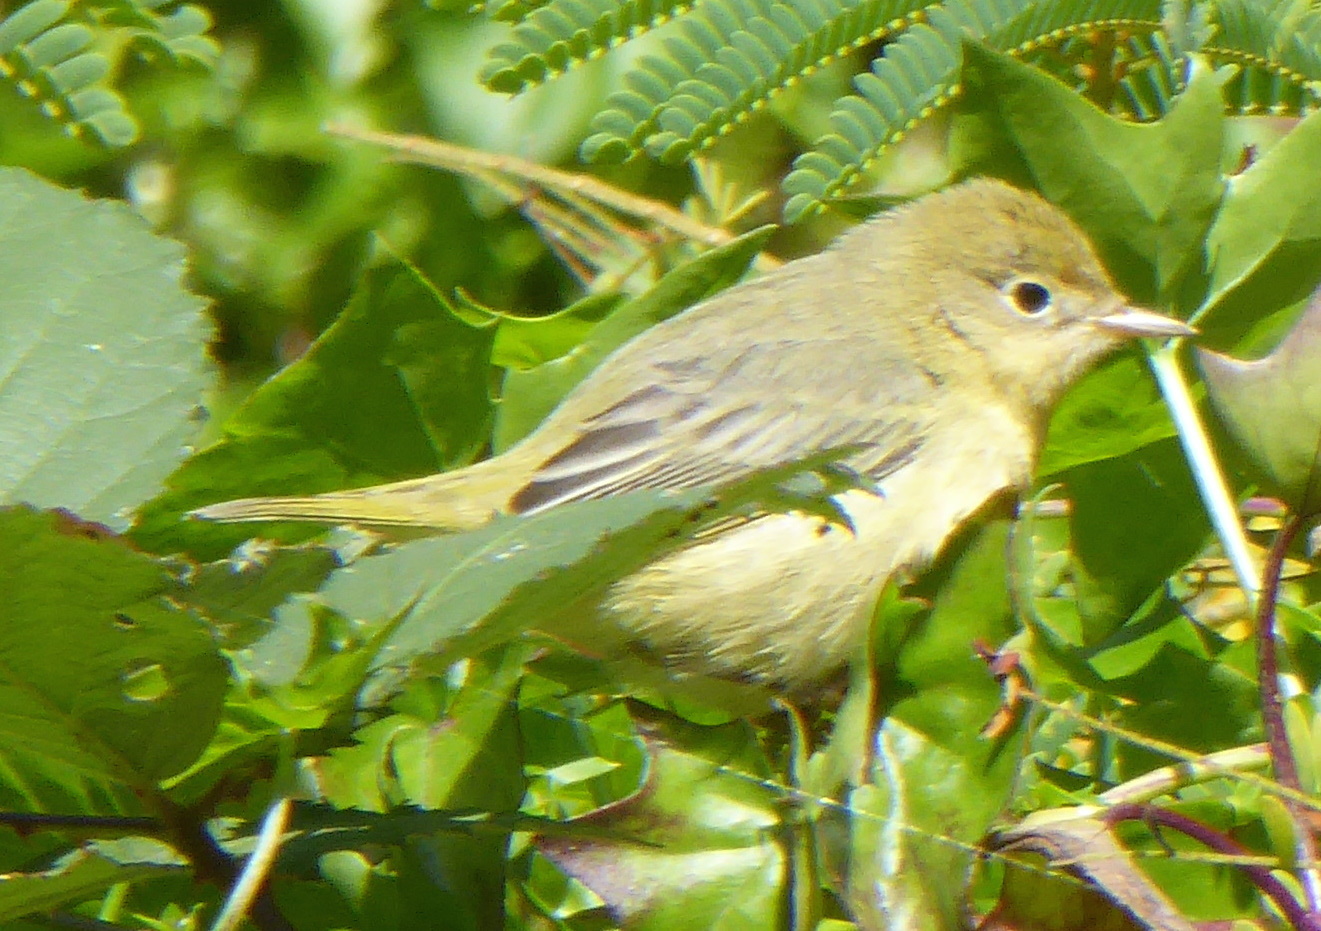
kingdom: Animalia
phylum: Chordata
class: Aves
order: Passeriformes
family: Parulidae
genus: Setophaga
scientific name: Setophaga petechia
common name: Yellow warbler
